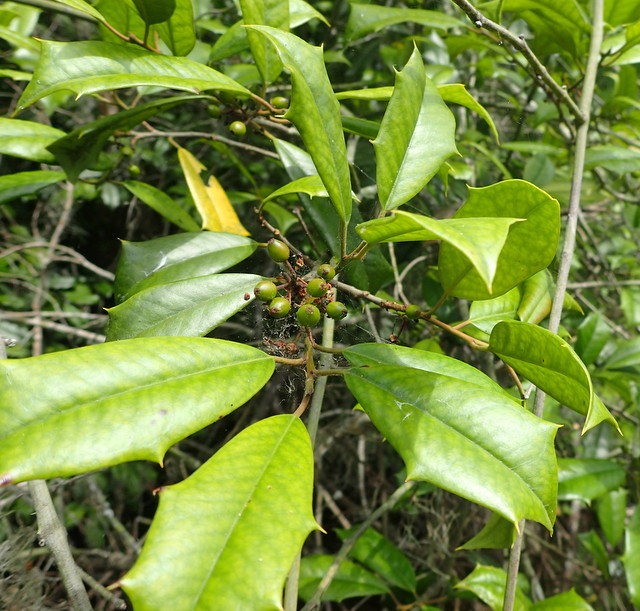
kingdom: Plantae
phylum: Tracheophyta
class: Magnoliopsida
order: Aquifoliales
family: Aquifoliaceae
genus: Ilex
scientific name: Ilex opaca
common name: American holly
